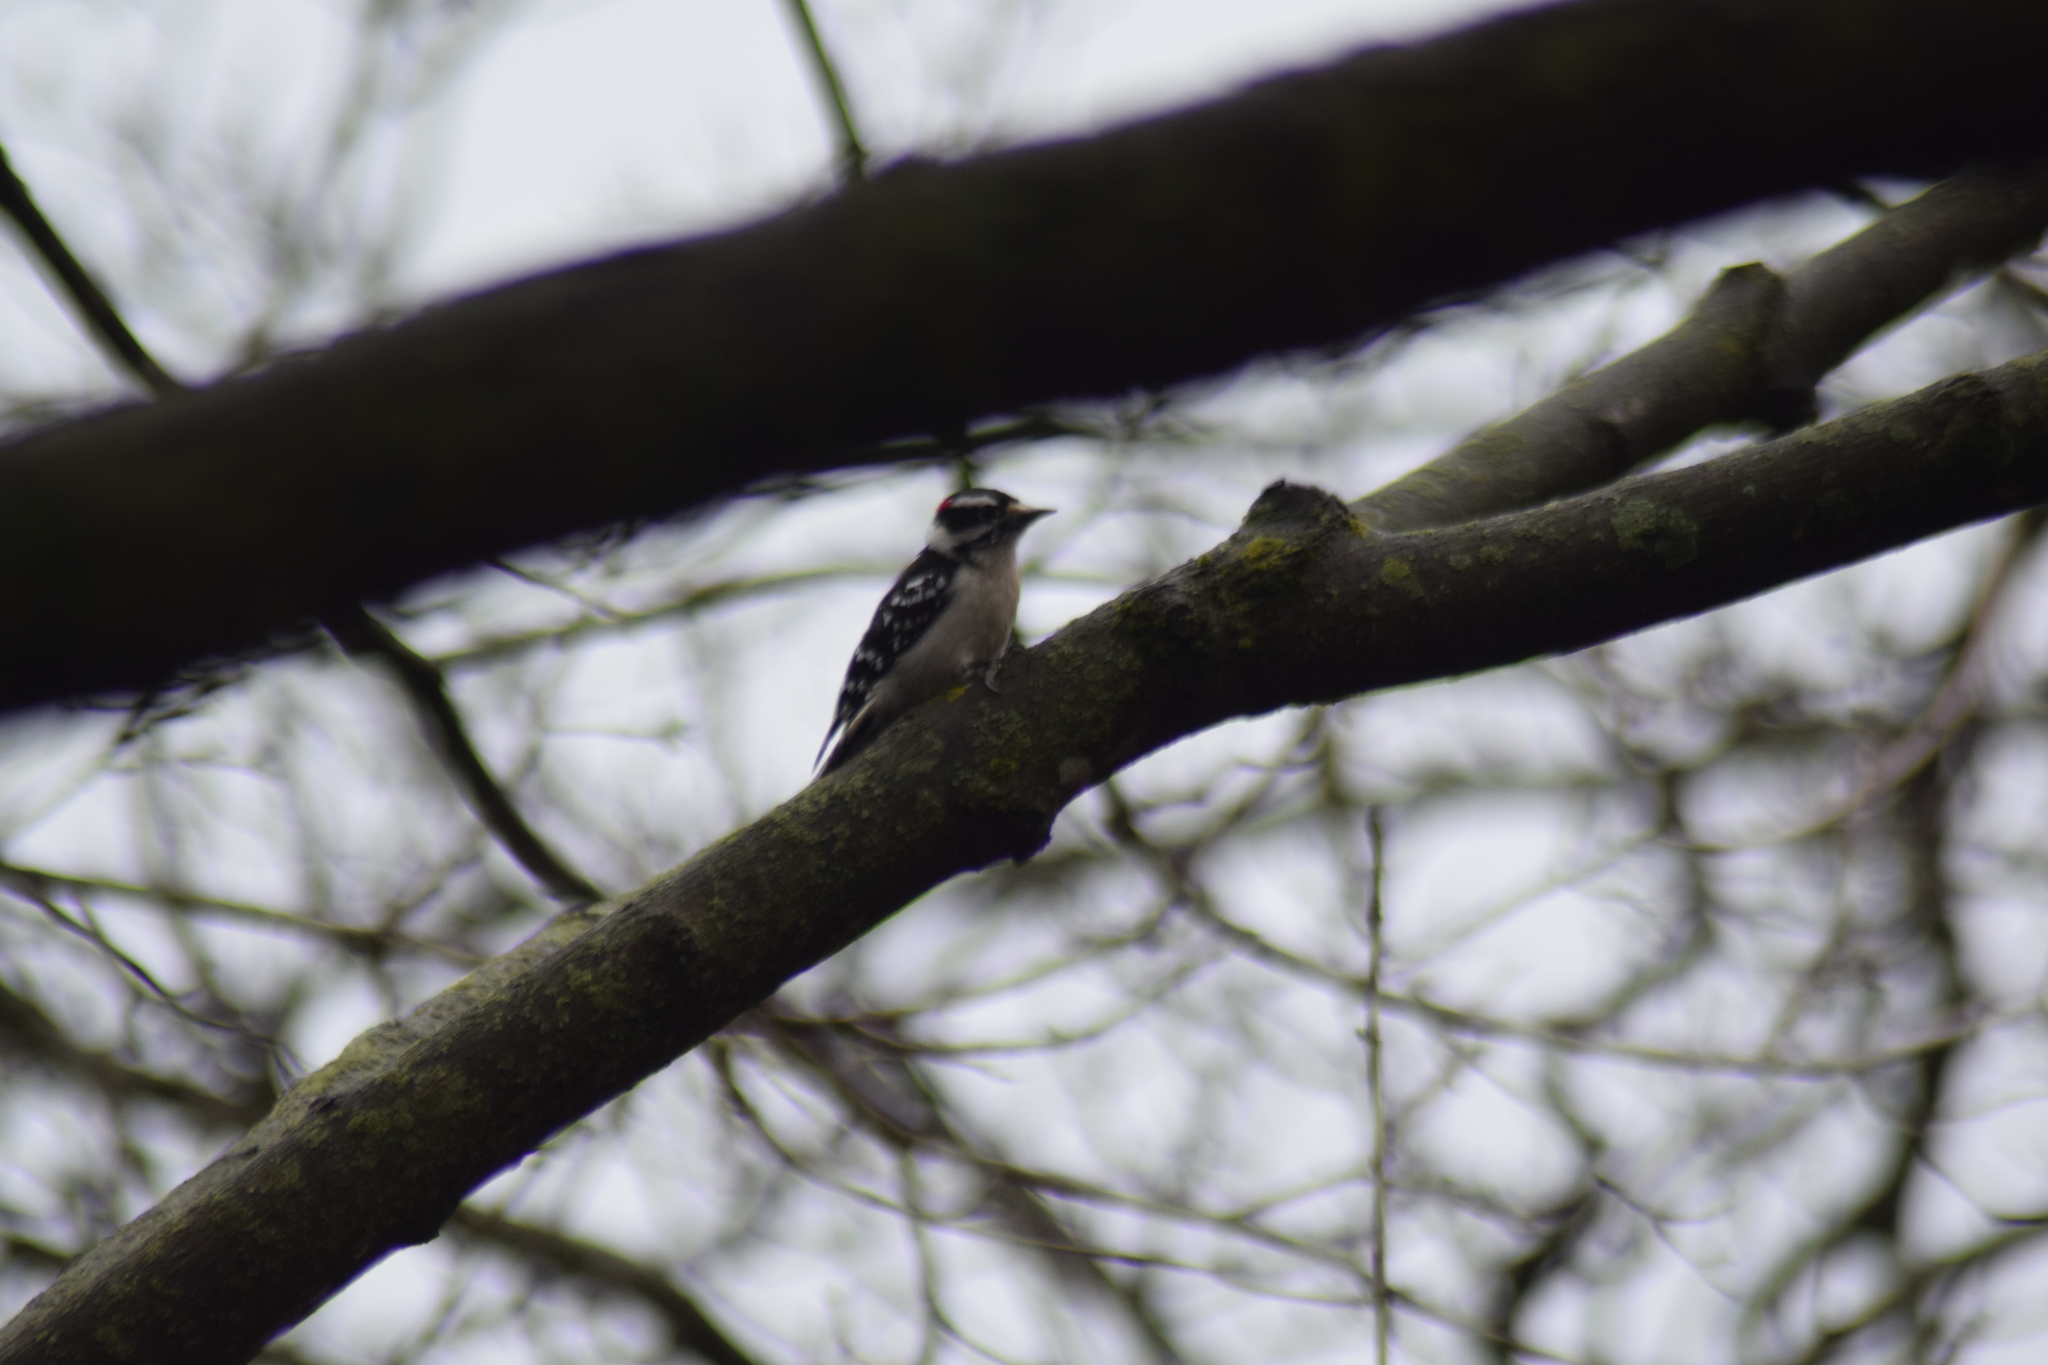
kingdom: Animalia
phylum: Chordata
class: Aves
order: Piciformes
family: Picidae
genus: Dryobates
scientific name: Dryobates pubescens
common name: Downy woodpecker
